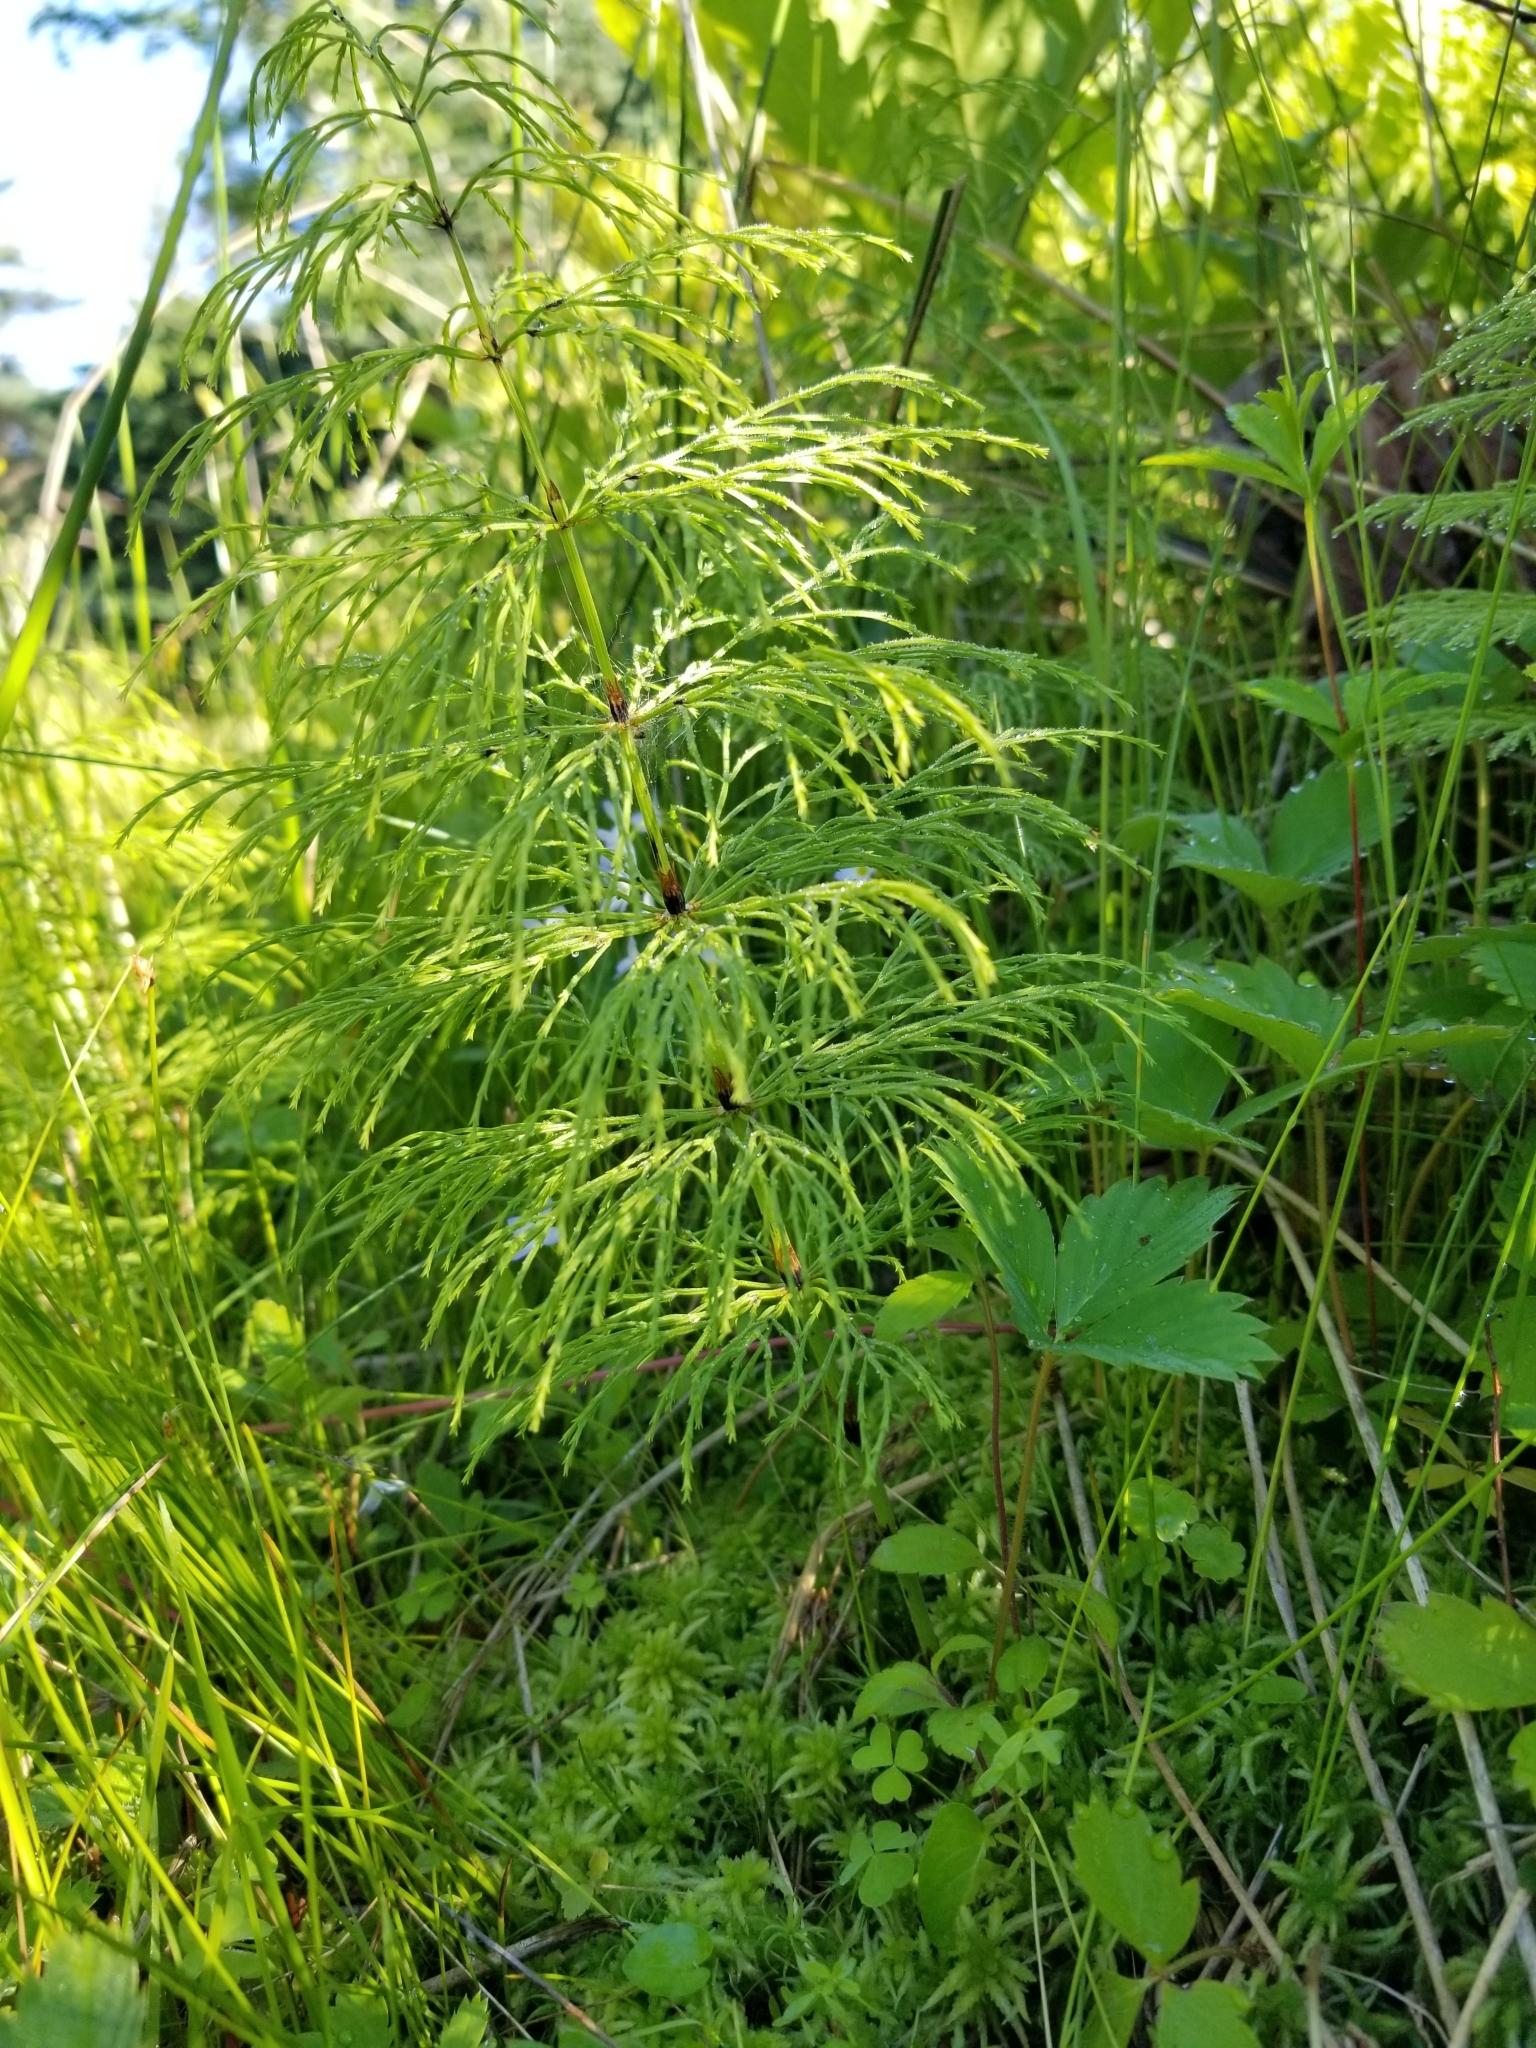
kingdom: Plantae
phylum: Tracheophyta
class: Polypodiopsida
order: Equisetales
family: Equisetaceae
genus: Equisetum
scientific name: Equisetum sylvaticum
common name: Wood horsetail
